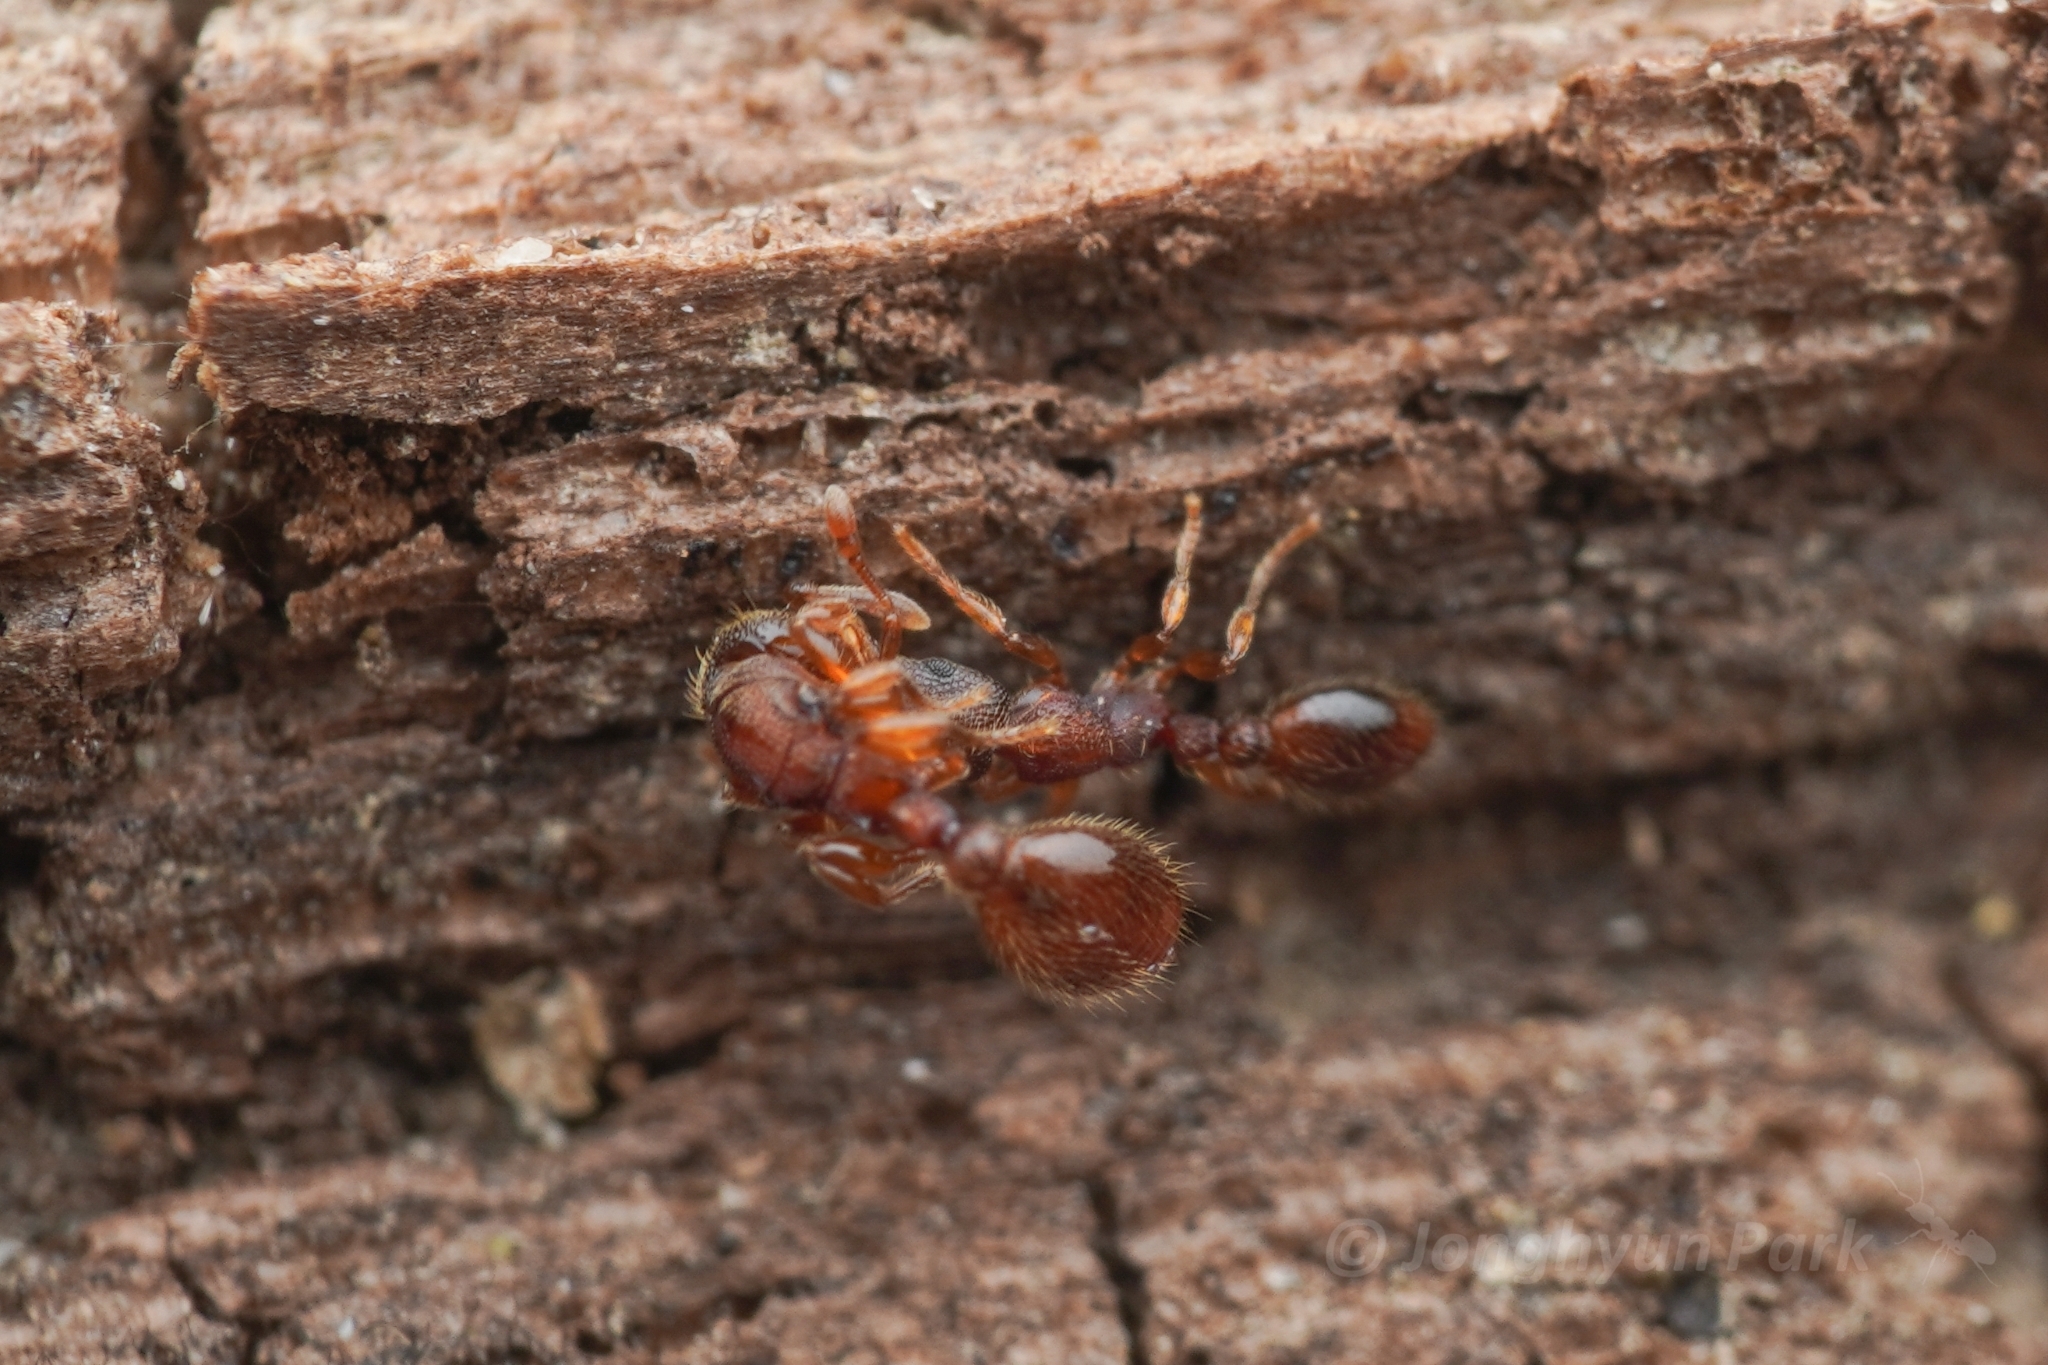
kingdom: Animalia
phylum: Arthropoda
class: Insecta
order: Hymenoptera
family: Formicidae
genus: Vollenhovia
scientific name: Vollenhovia emeryi
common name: Ant
